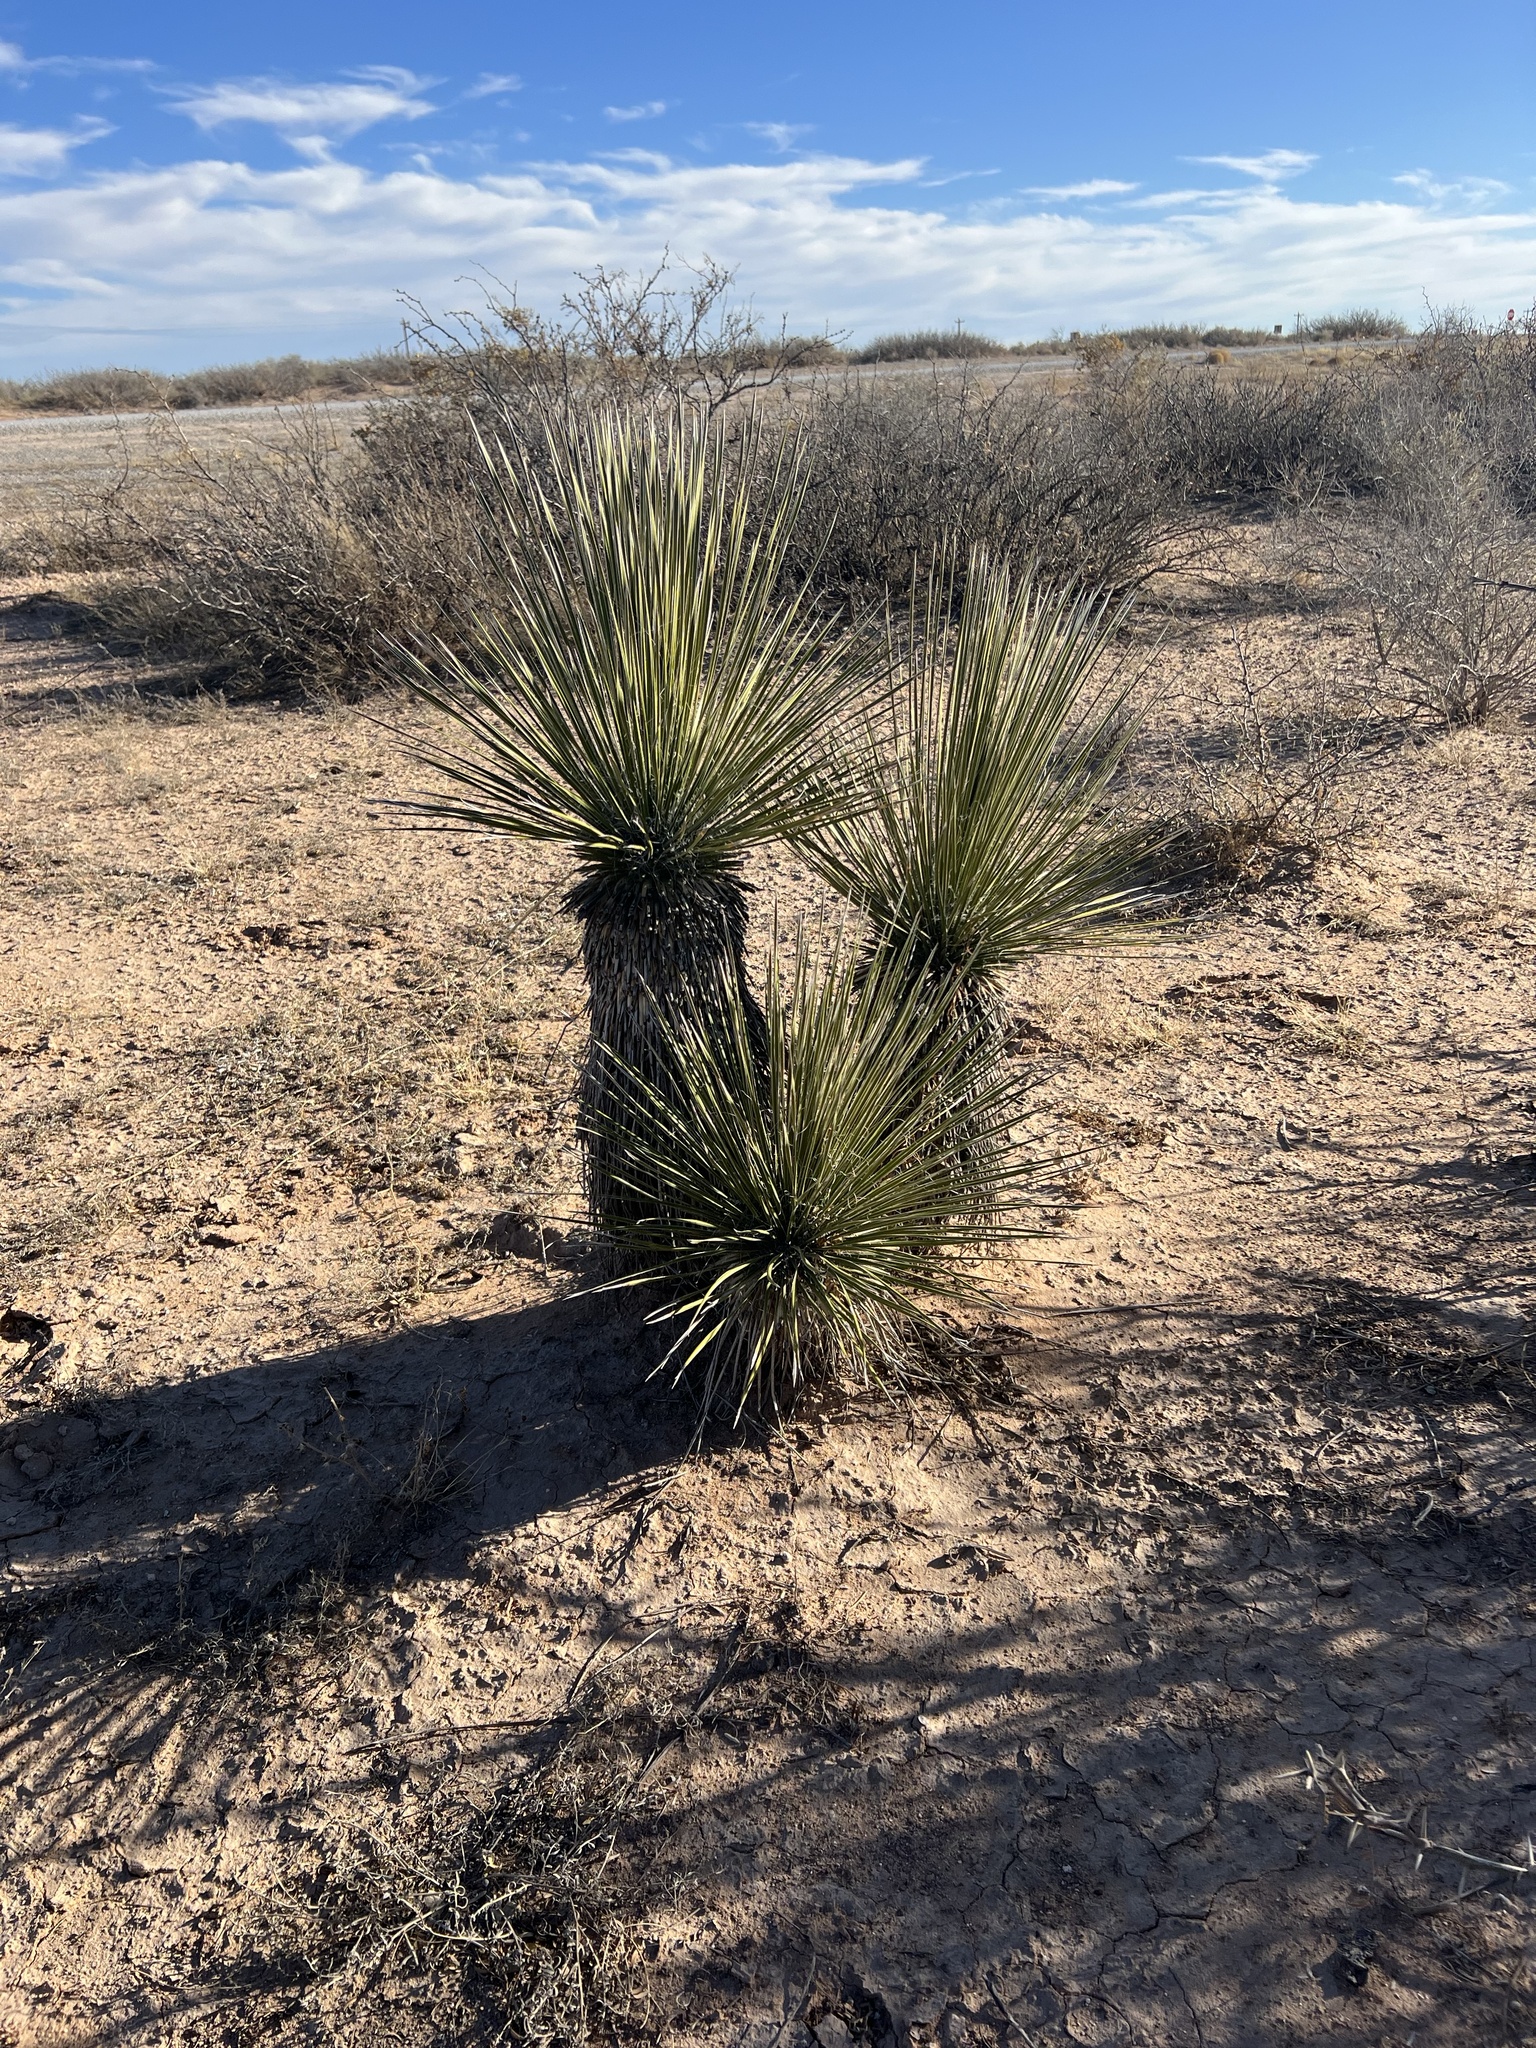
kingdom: Plantae
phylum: Tracheophyta
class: Liliopsida
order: Asparagales
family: Asparagaceae
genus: Yucca
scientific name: Yucca elata
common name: Palmella
